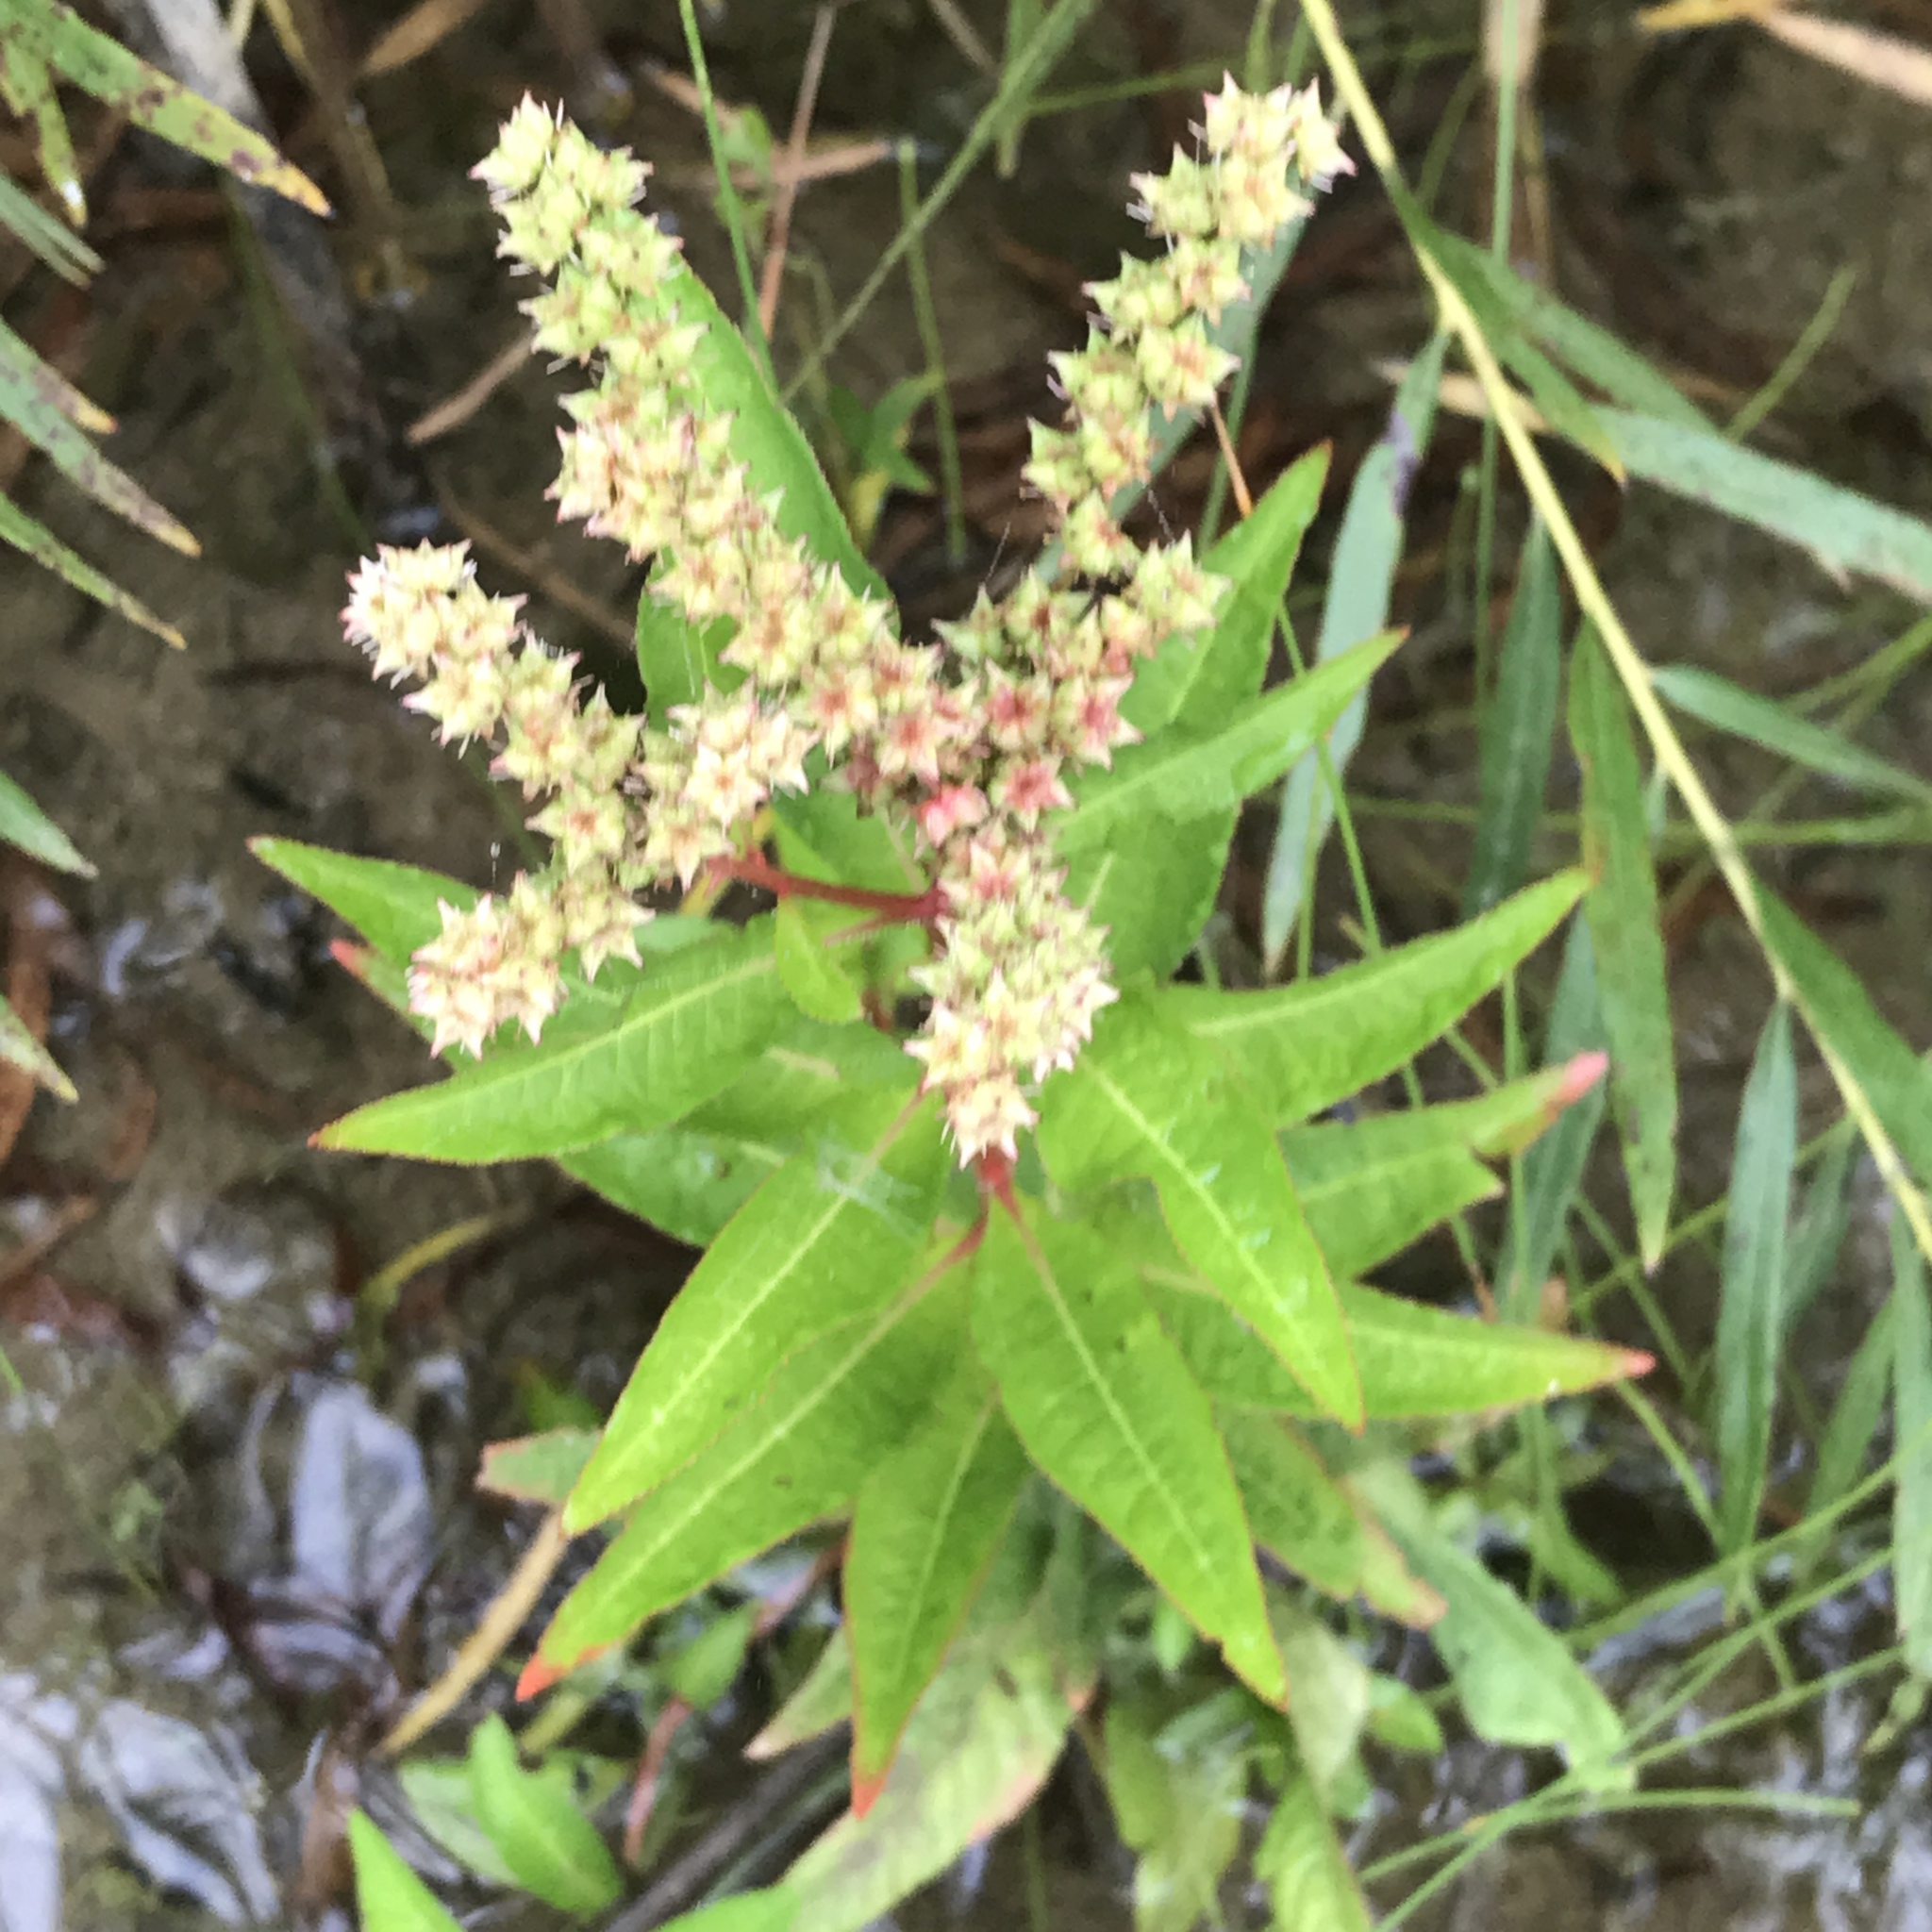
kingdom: Plantae
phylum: Tracheophyta
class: Magnoliopsida
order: Saxifragales
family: Penthoraceae
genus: Penthorum
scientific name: Penthorum sedoides
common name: Ditch stonecrop
